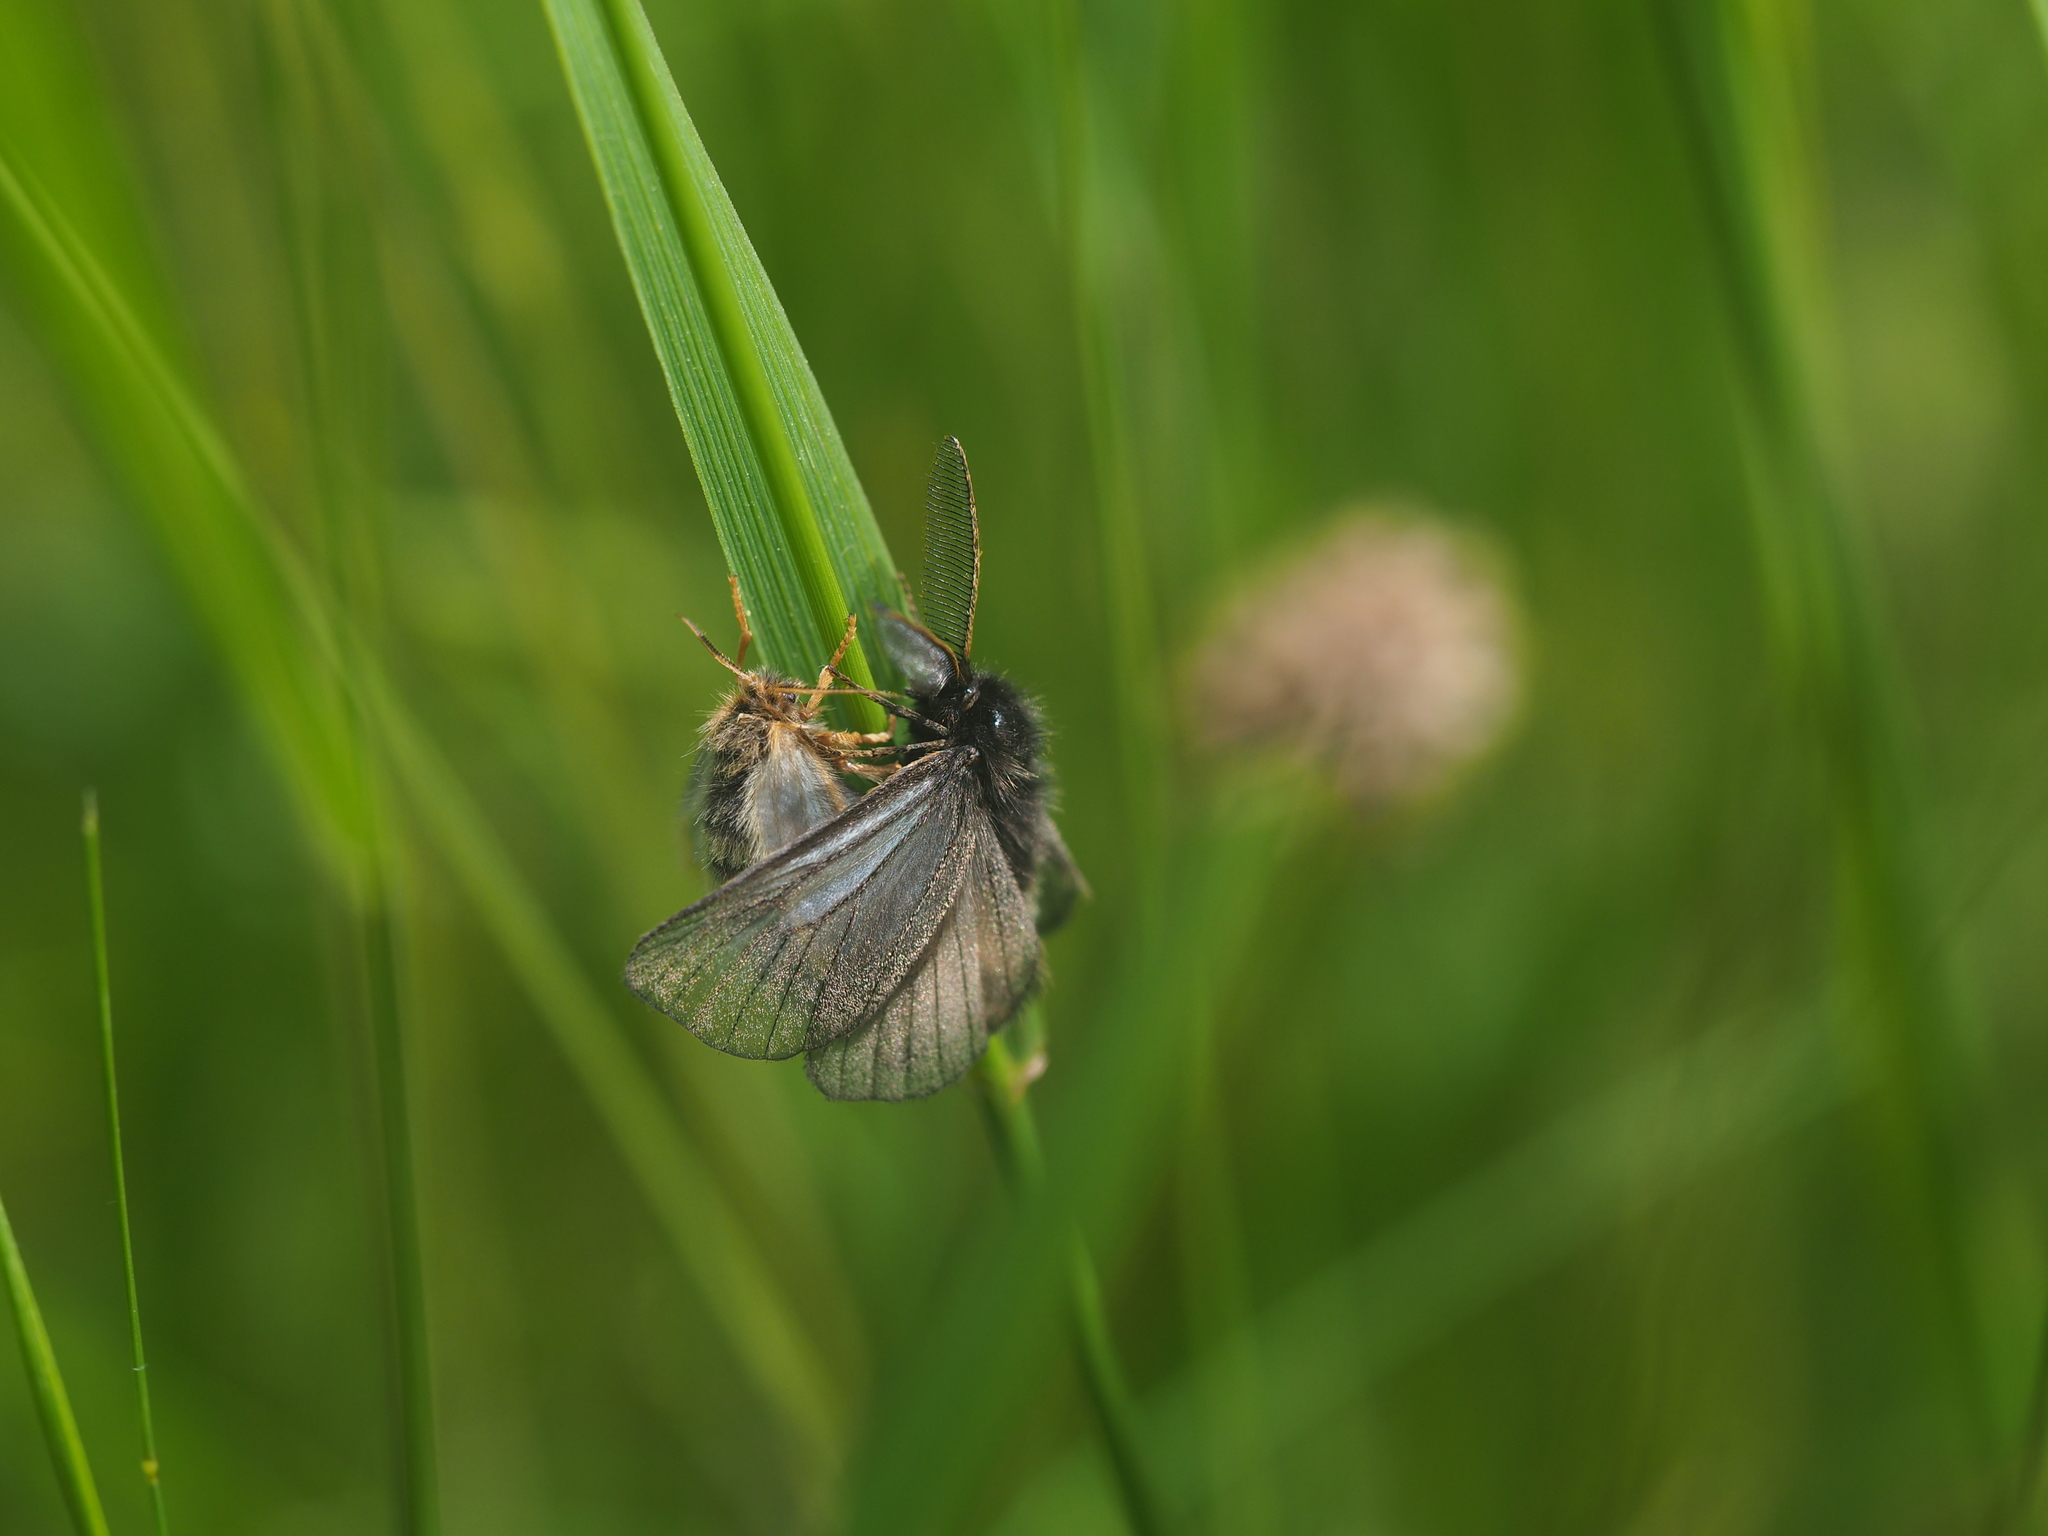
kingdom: Animalia
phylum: Arthropoda
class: Insecta
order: Lepidoptera
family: Erebidae
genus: Penthophera
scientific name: Penthophera morio
